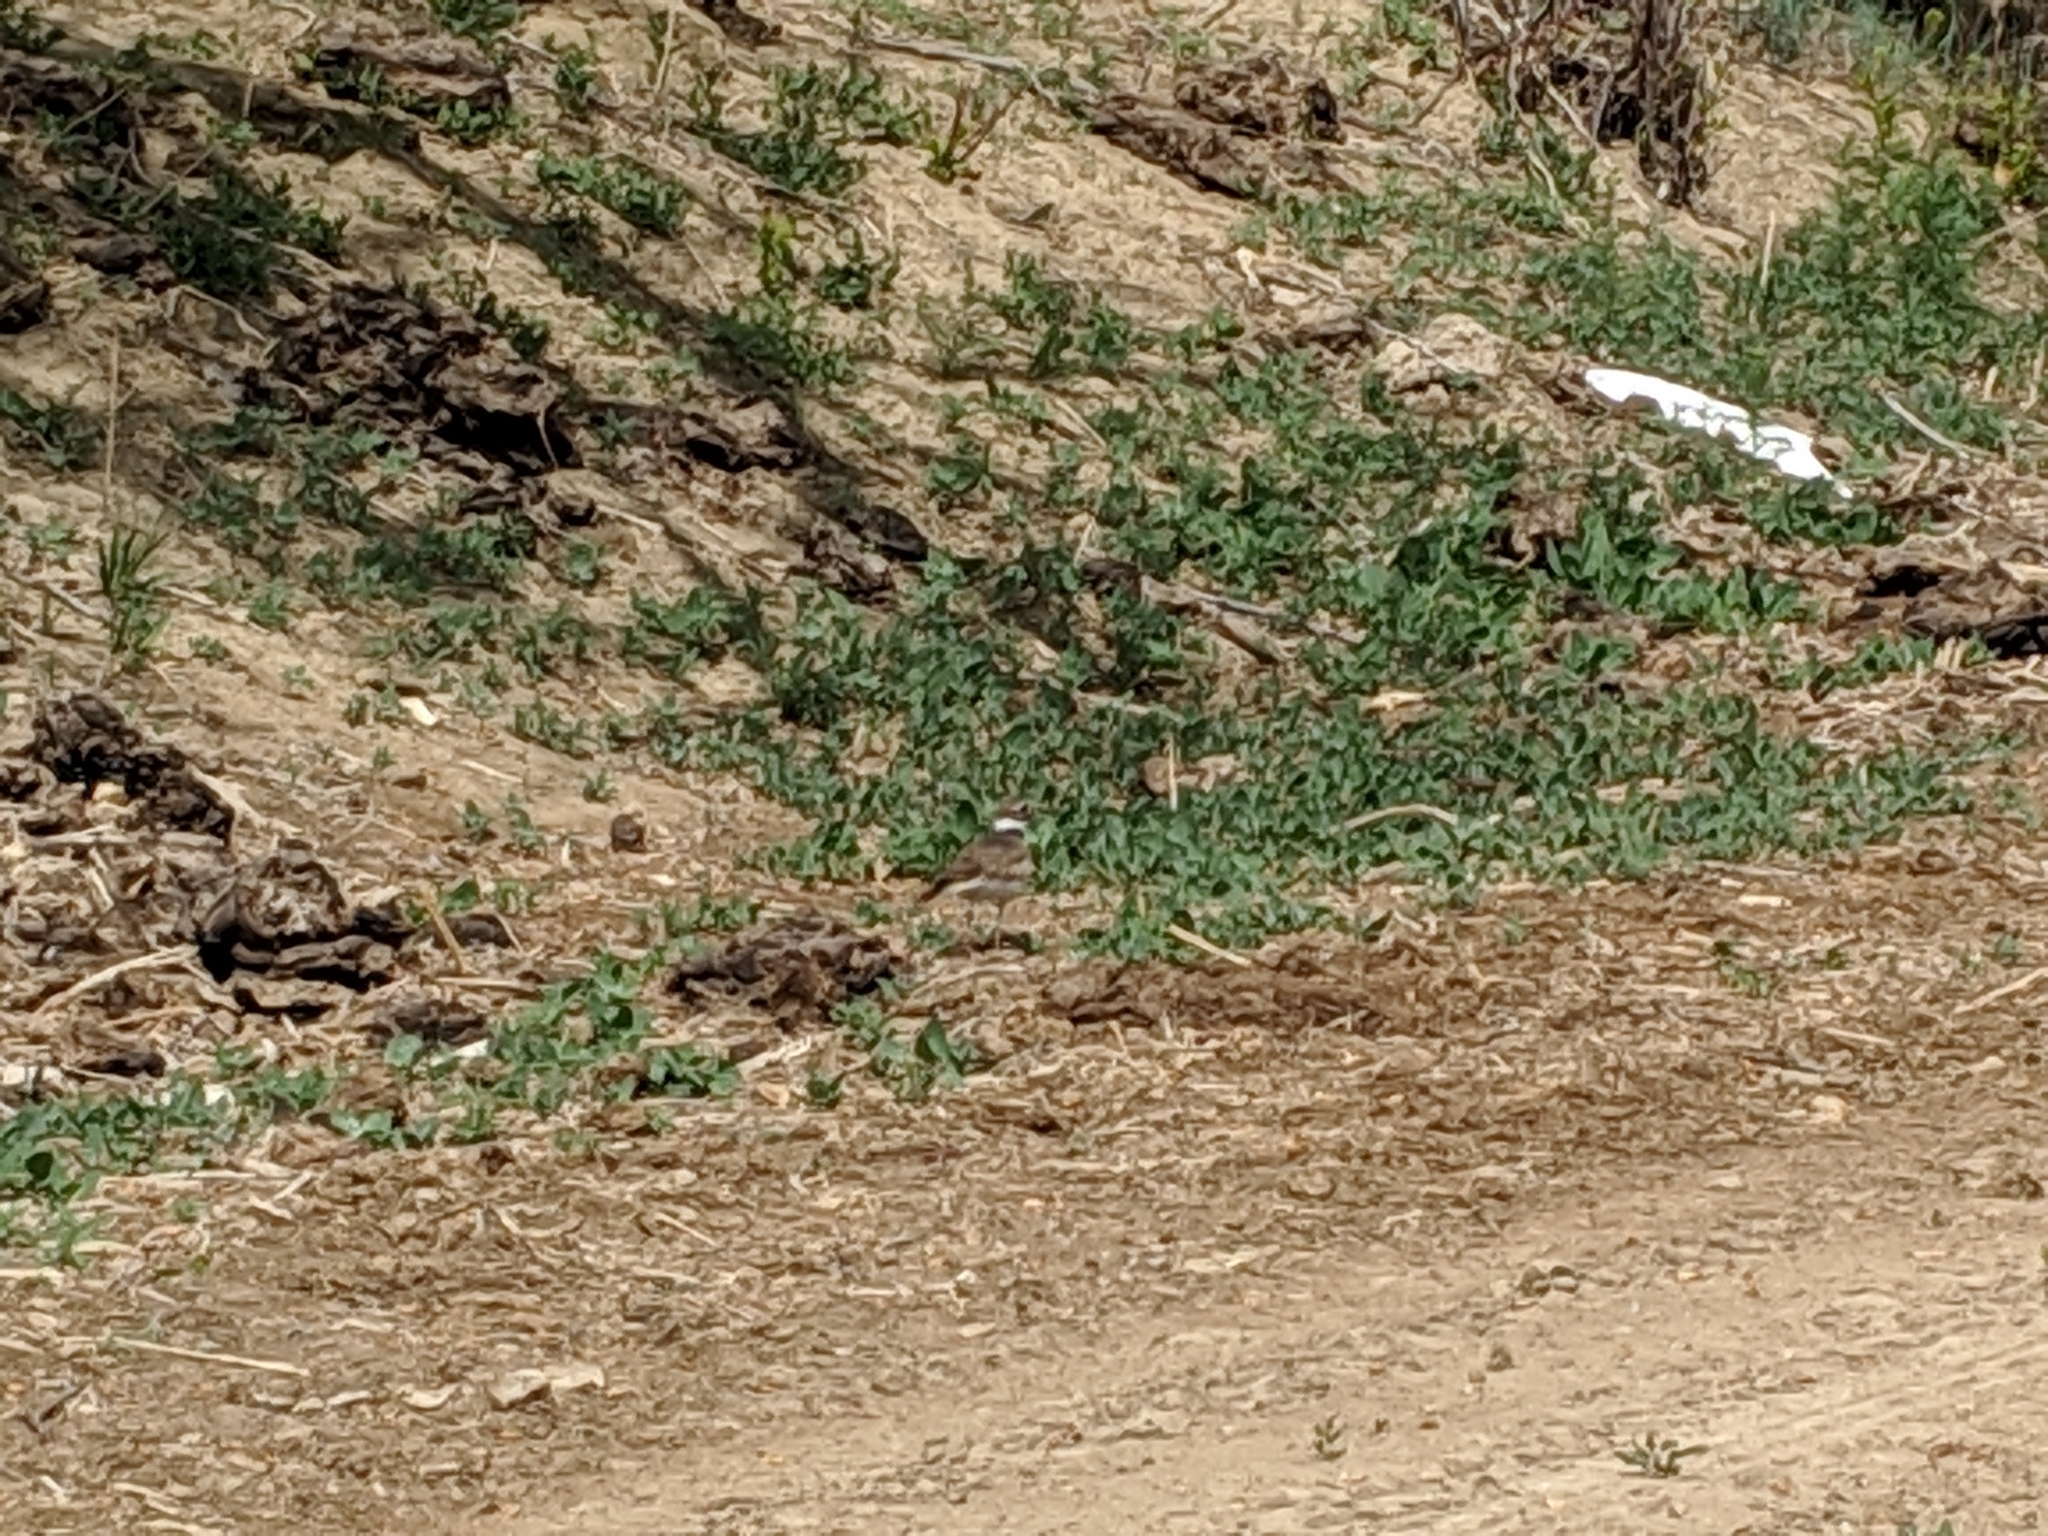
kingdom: Animalia
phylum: Chordata
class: Aves
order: Charadriiformes
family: Charadriidae
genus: Charadrius
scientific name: Charadrius vociferus
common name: Killdeer
